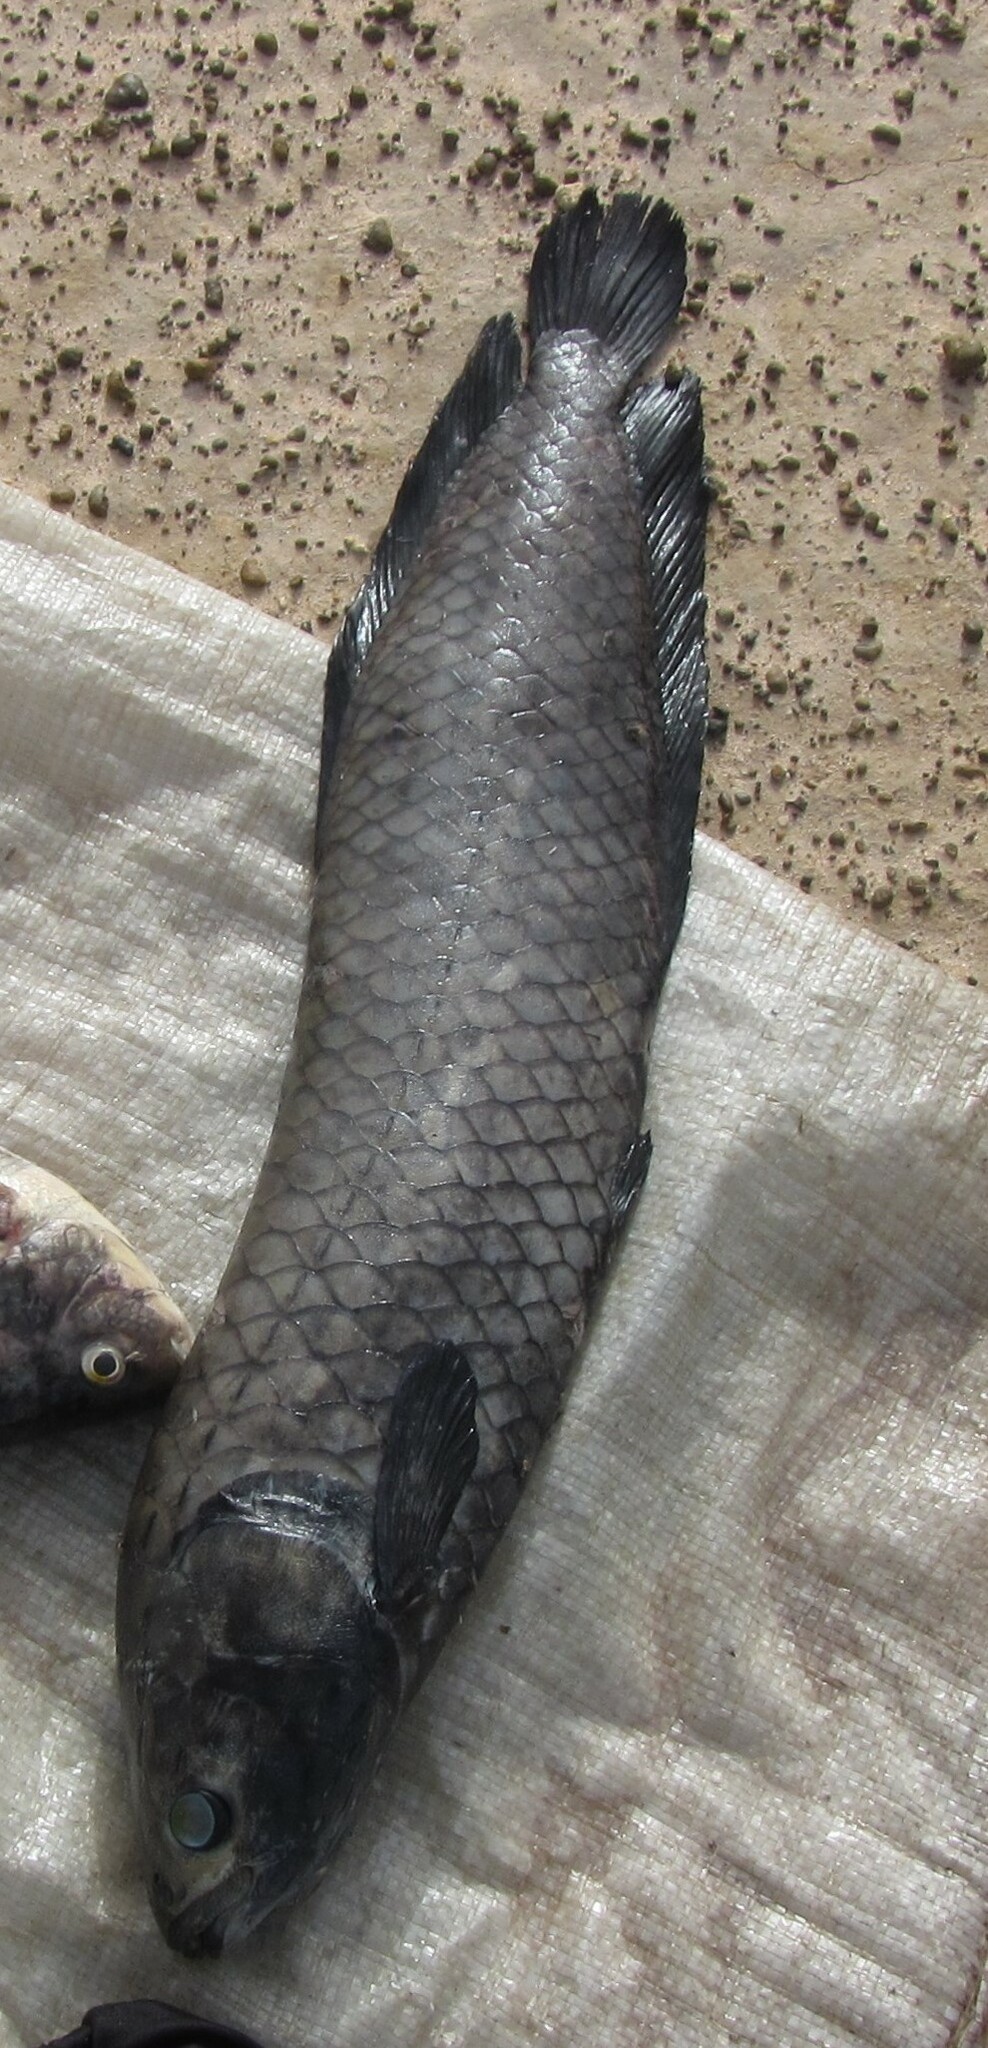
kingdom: Animalia
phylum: Chordata
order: Osteoglossiformes
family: Arapaimidae
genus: Heterotis
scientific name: Heterotis niloticus
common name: African bonytongue
